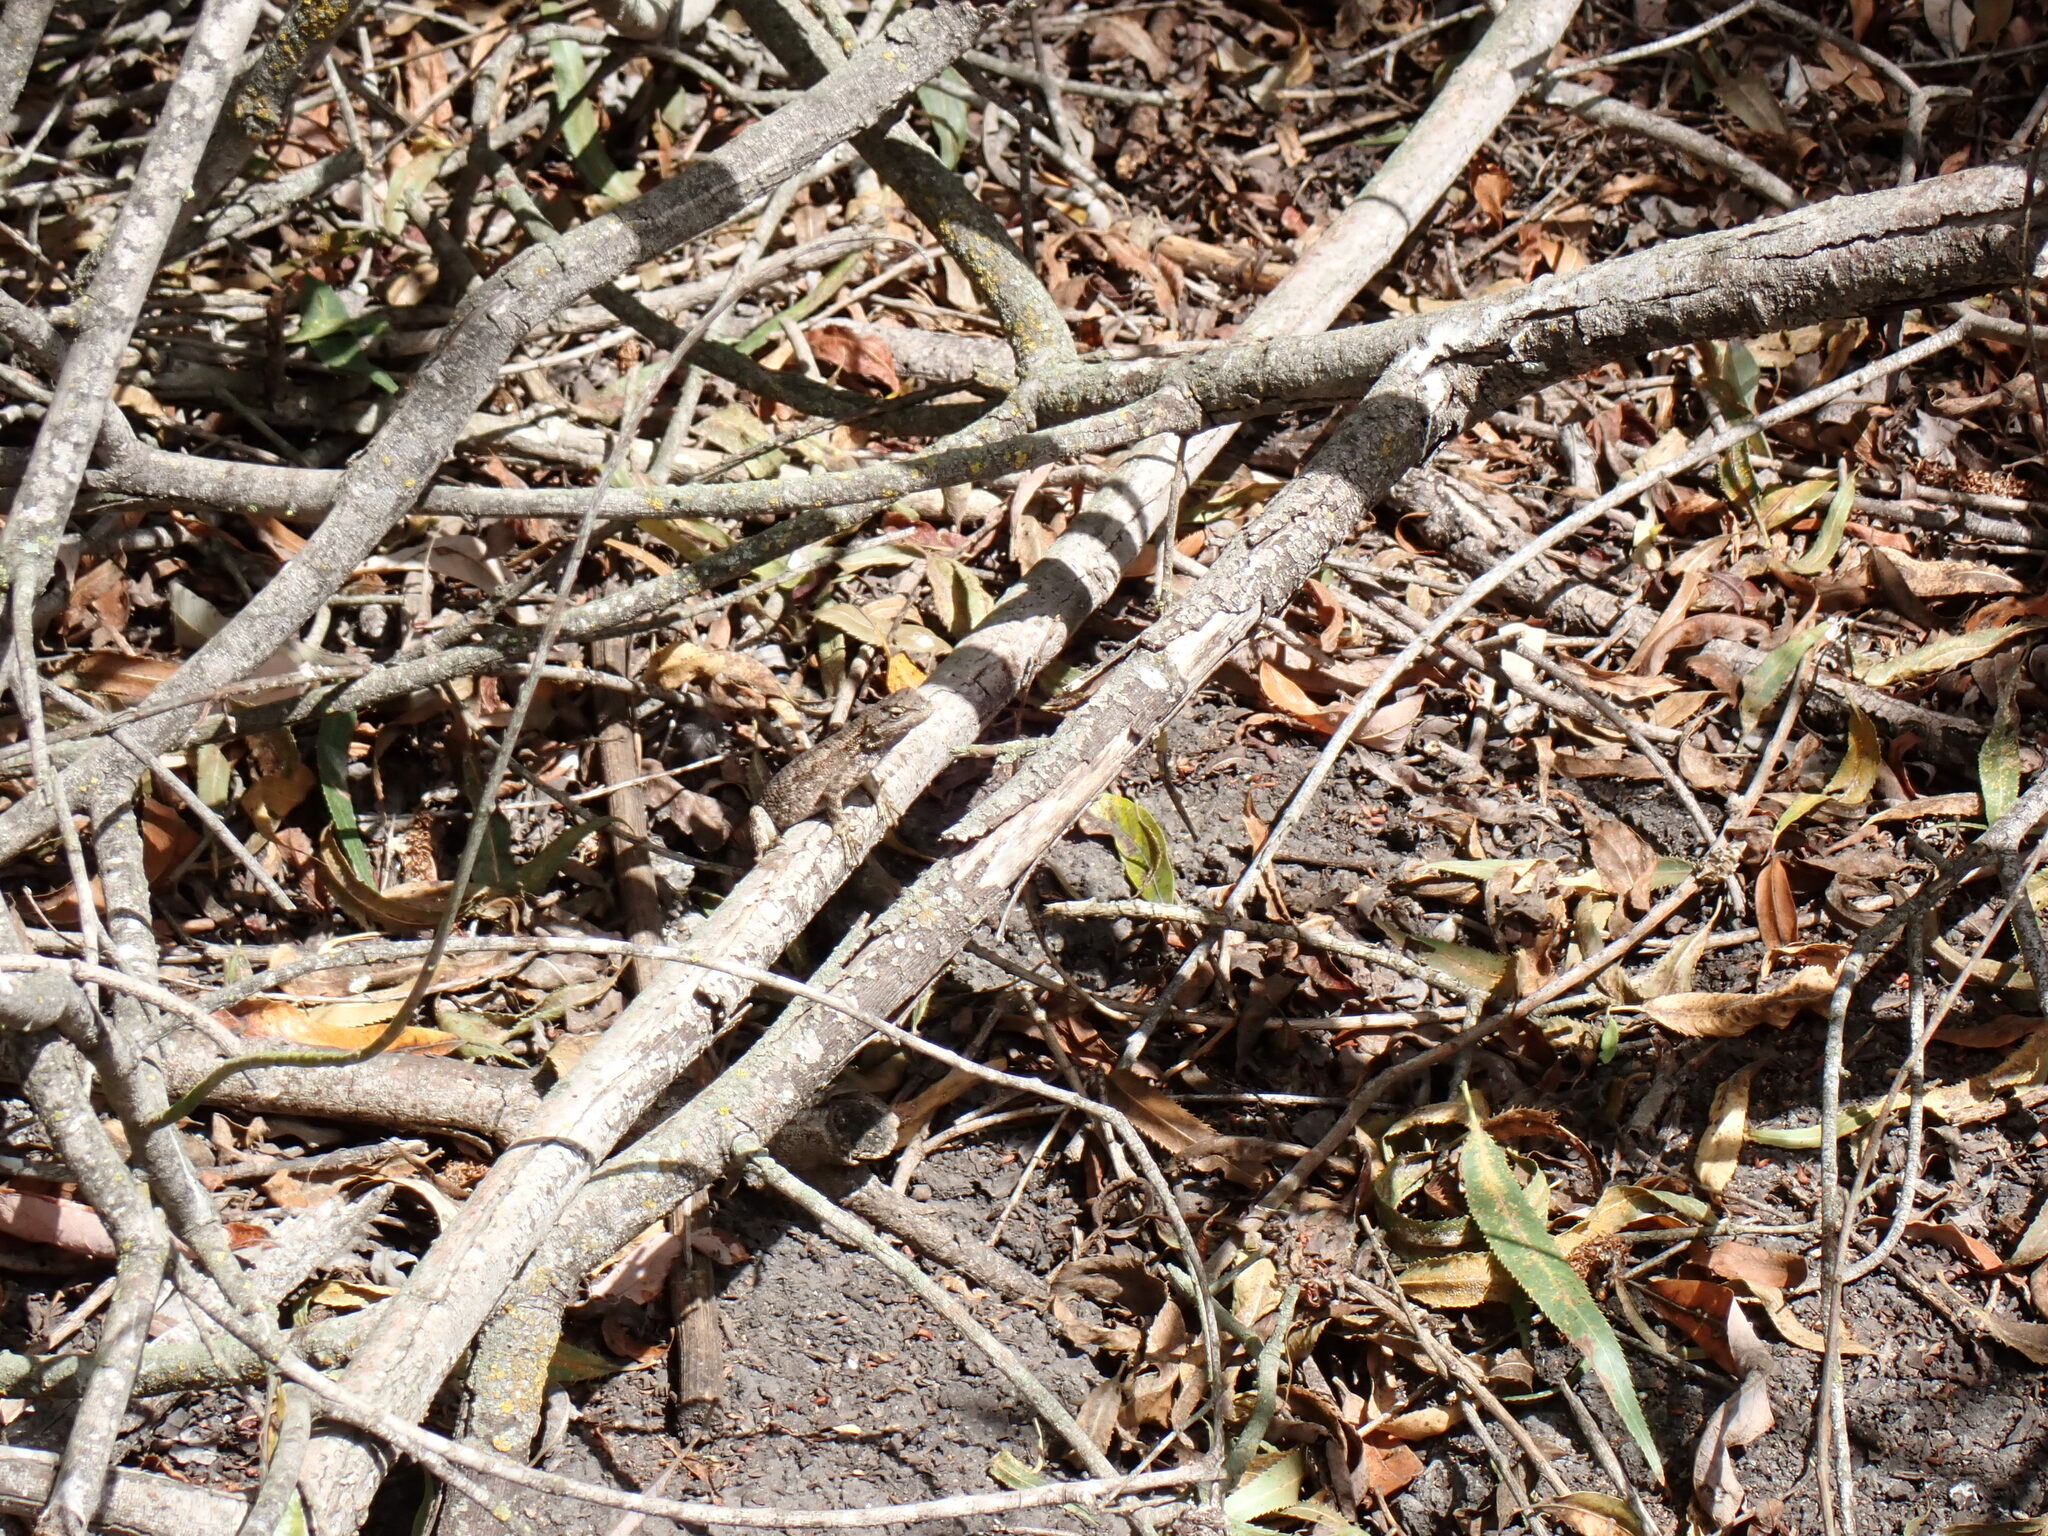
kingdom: Animalia
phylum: Chordata
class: Squamata
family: Phrynosomatidae
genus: Sceloporus
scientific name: Sceloporus occidentalis
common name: Western fence lizard
